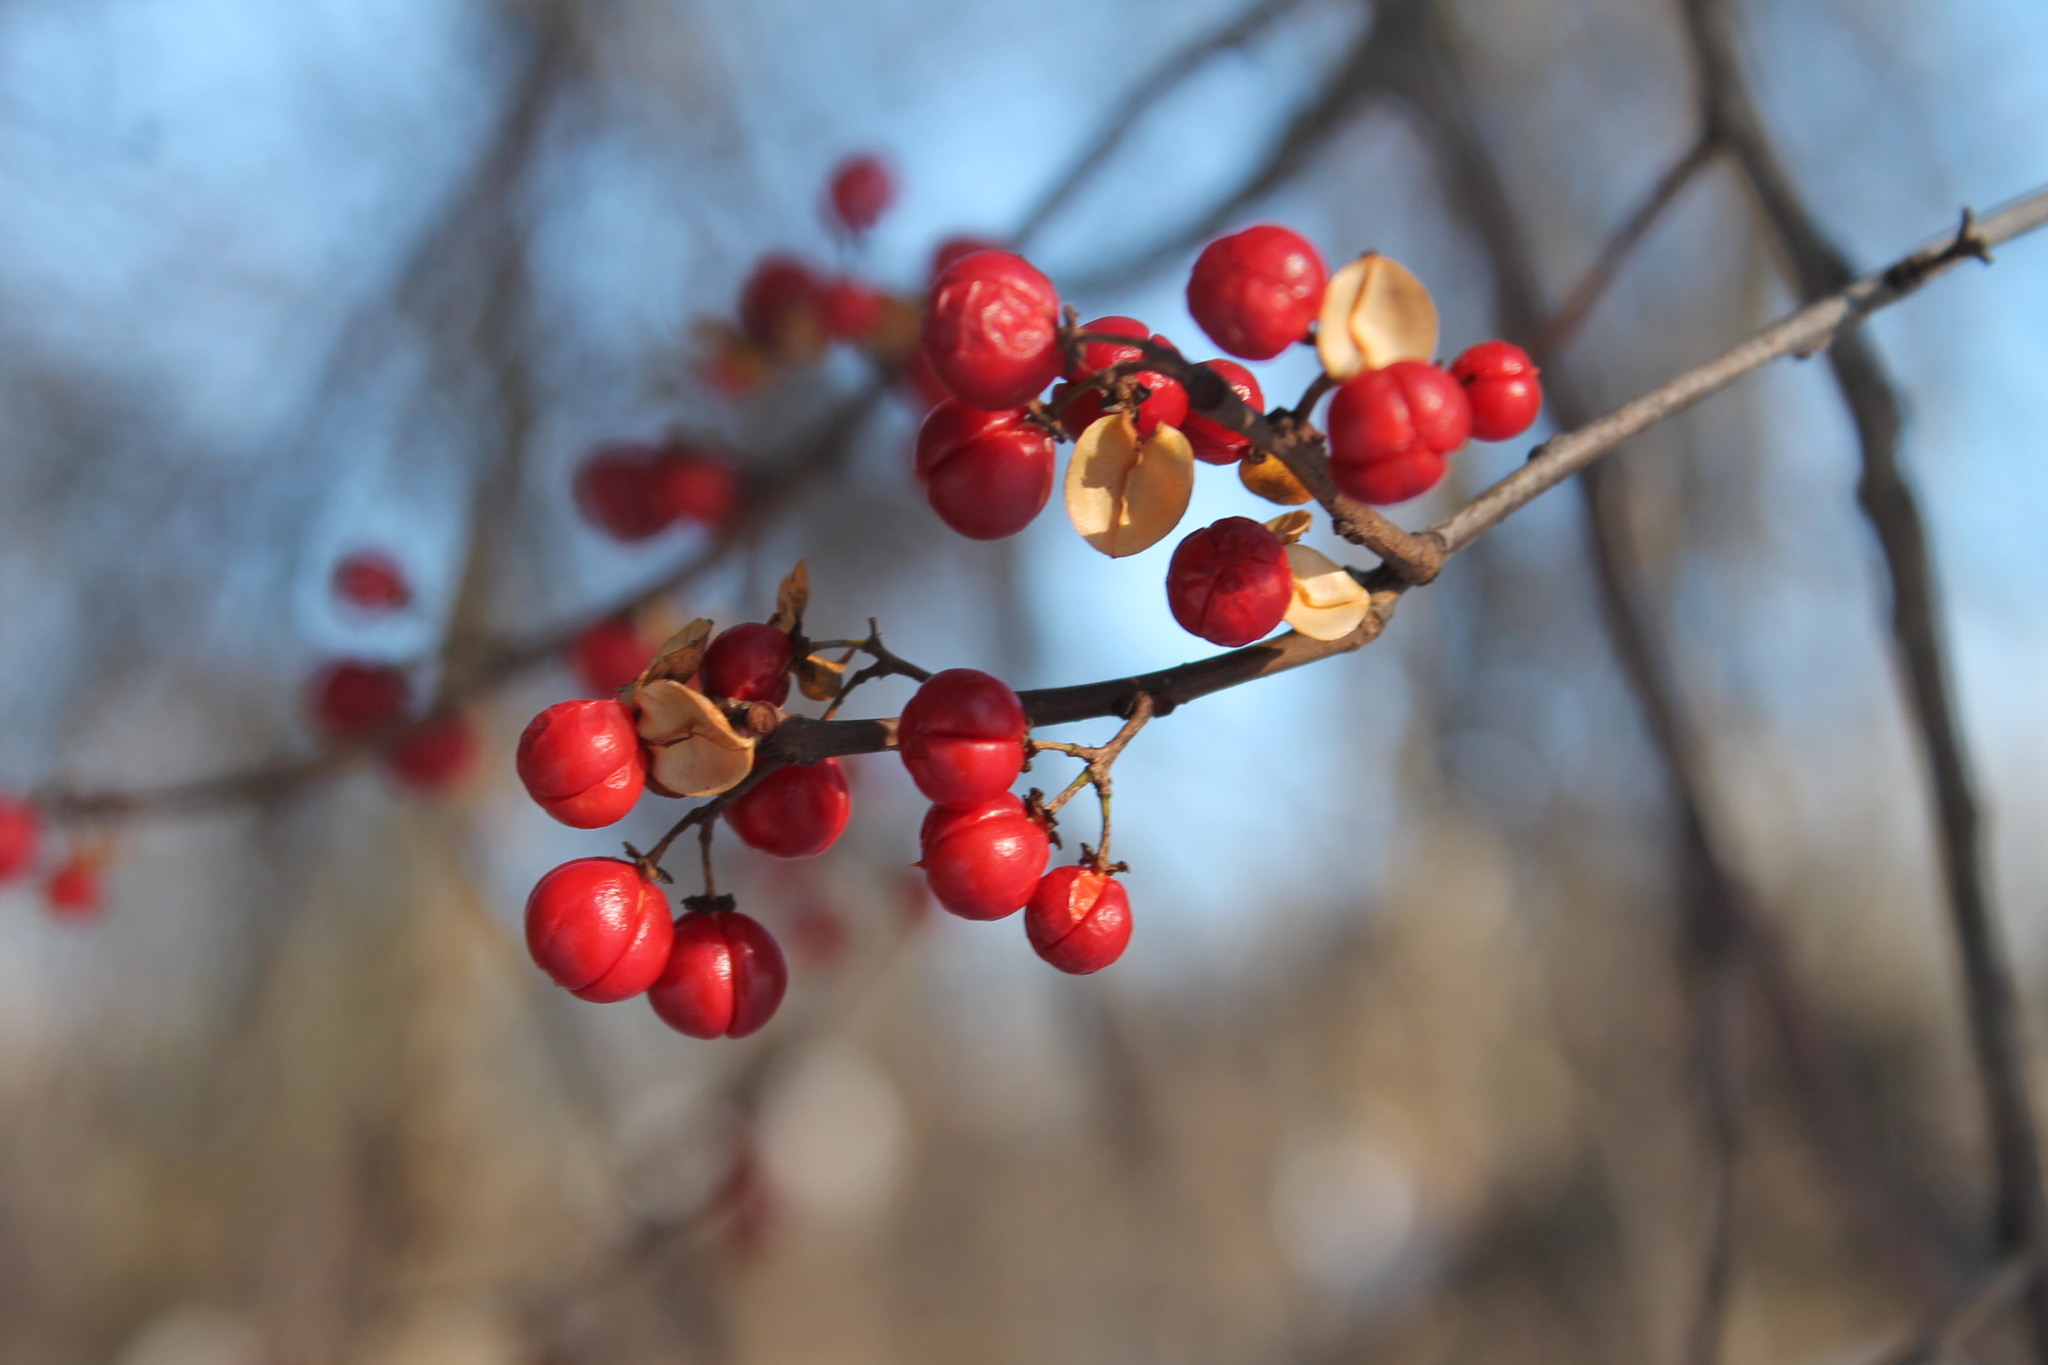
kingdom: Plantae
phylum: Tracheophyta
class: Magnoliopsida
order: Celastrales
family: Celastraceae
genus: Celastrus
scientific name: Celastrus orbiculatus
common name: Oriental bittersweet
